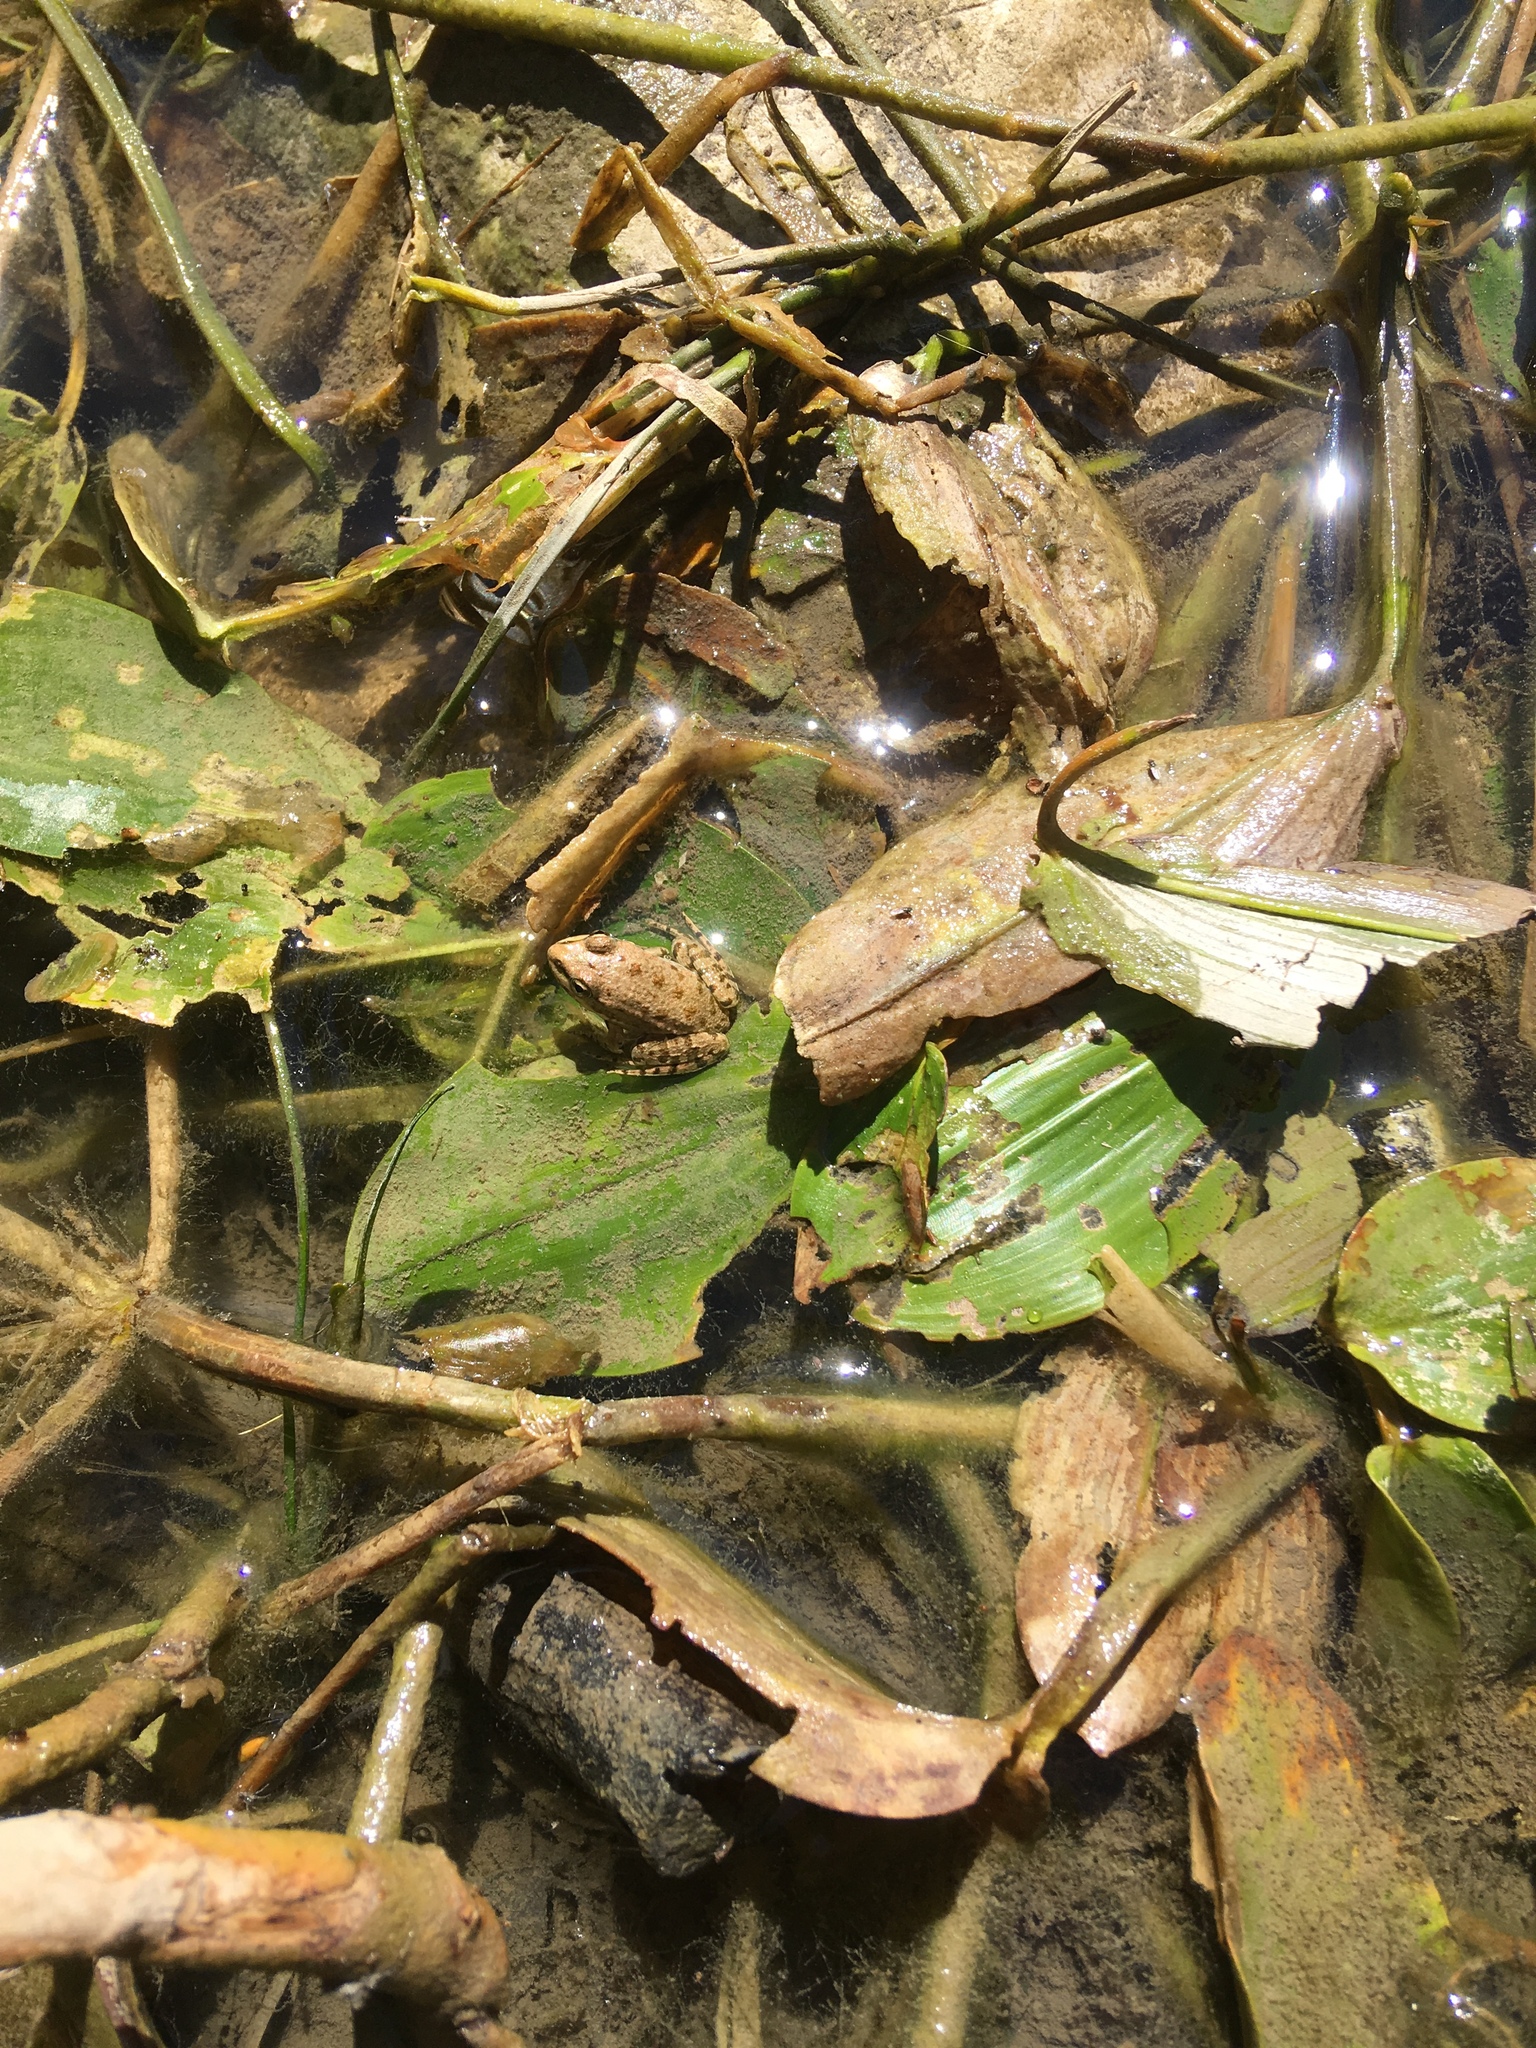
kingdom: Plantae
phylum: Tracheophyta
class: Liliopsida
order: Alismatales
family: Potamogetonaceae
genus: Potamogeton
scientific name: Potamogeton natans
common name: Broad-leaved pondweed
